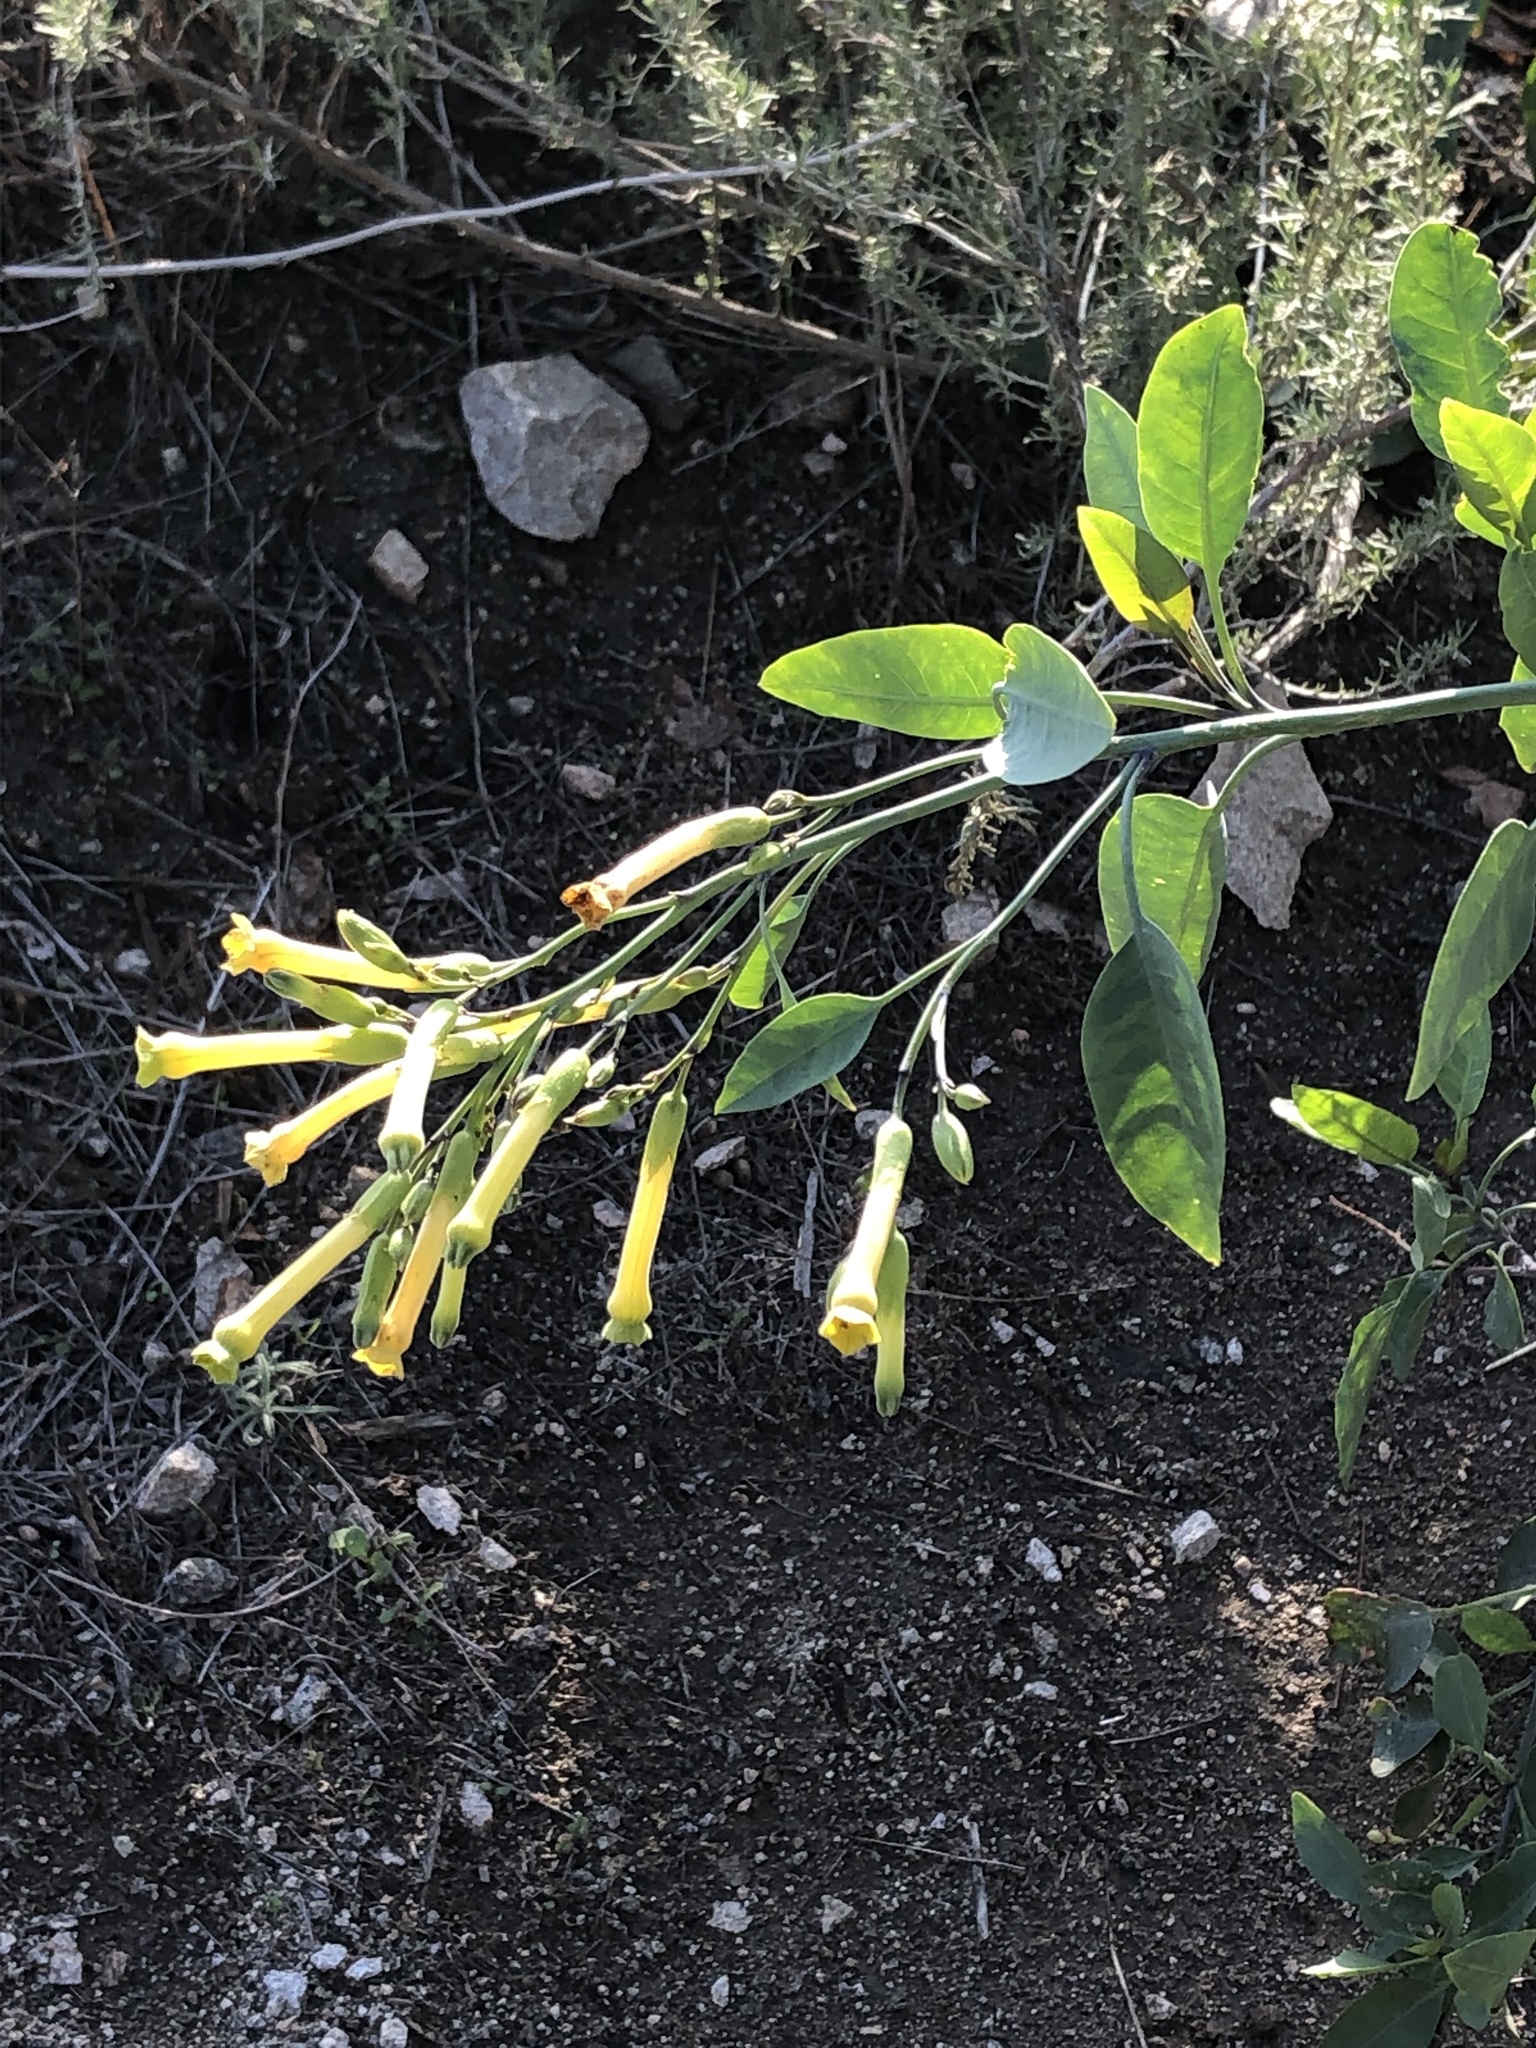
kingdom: Plantae
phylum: Tracheophyta
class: Magnoliopsida
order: Solanales
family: Solanaceae
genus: Nicotiana
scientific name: Nicotiana glauca
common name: Tree tobacco
